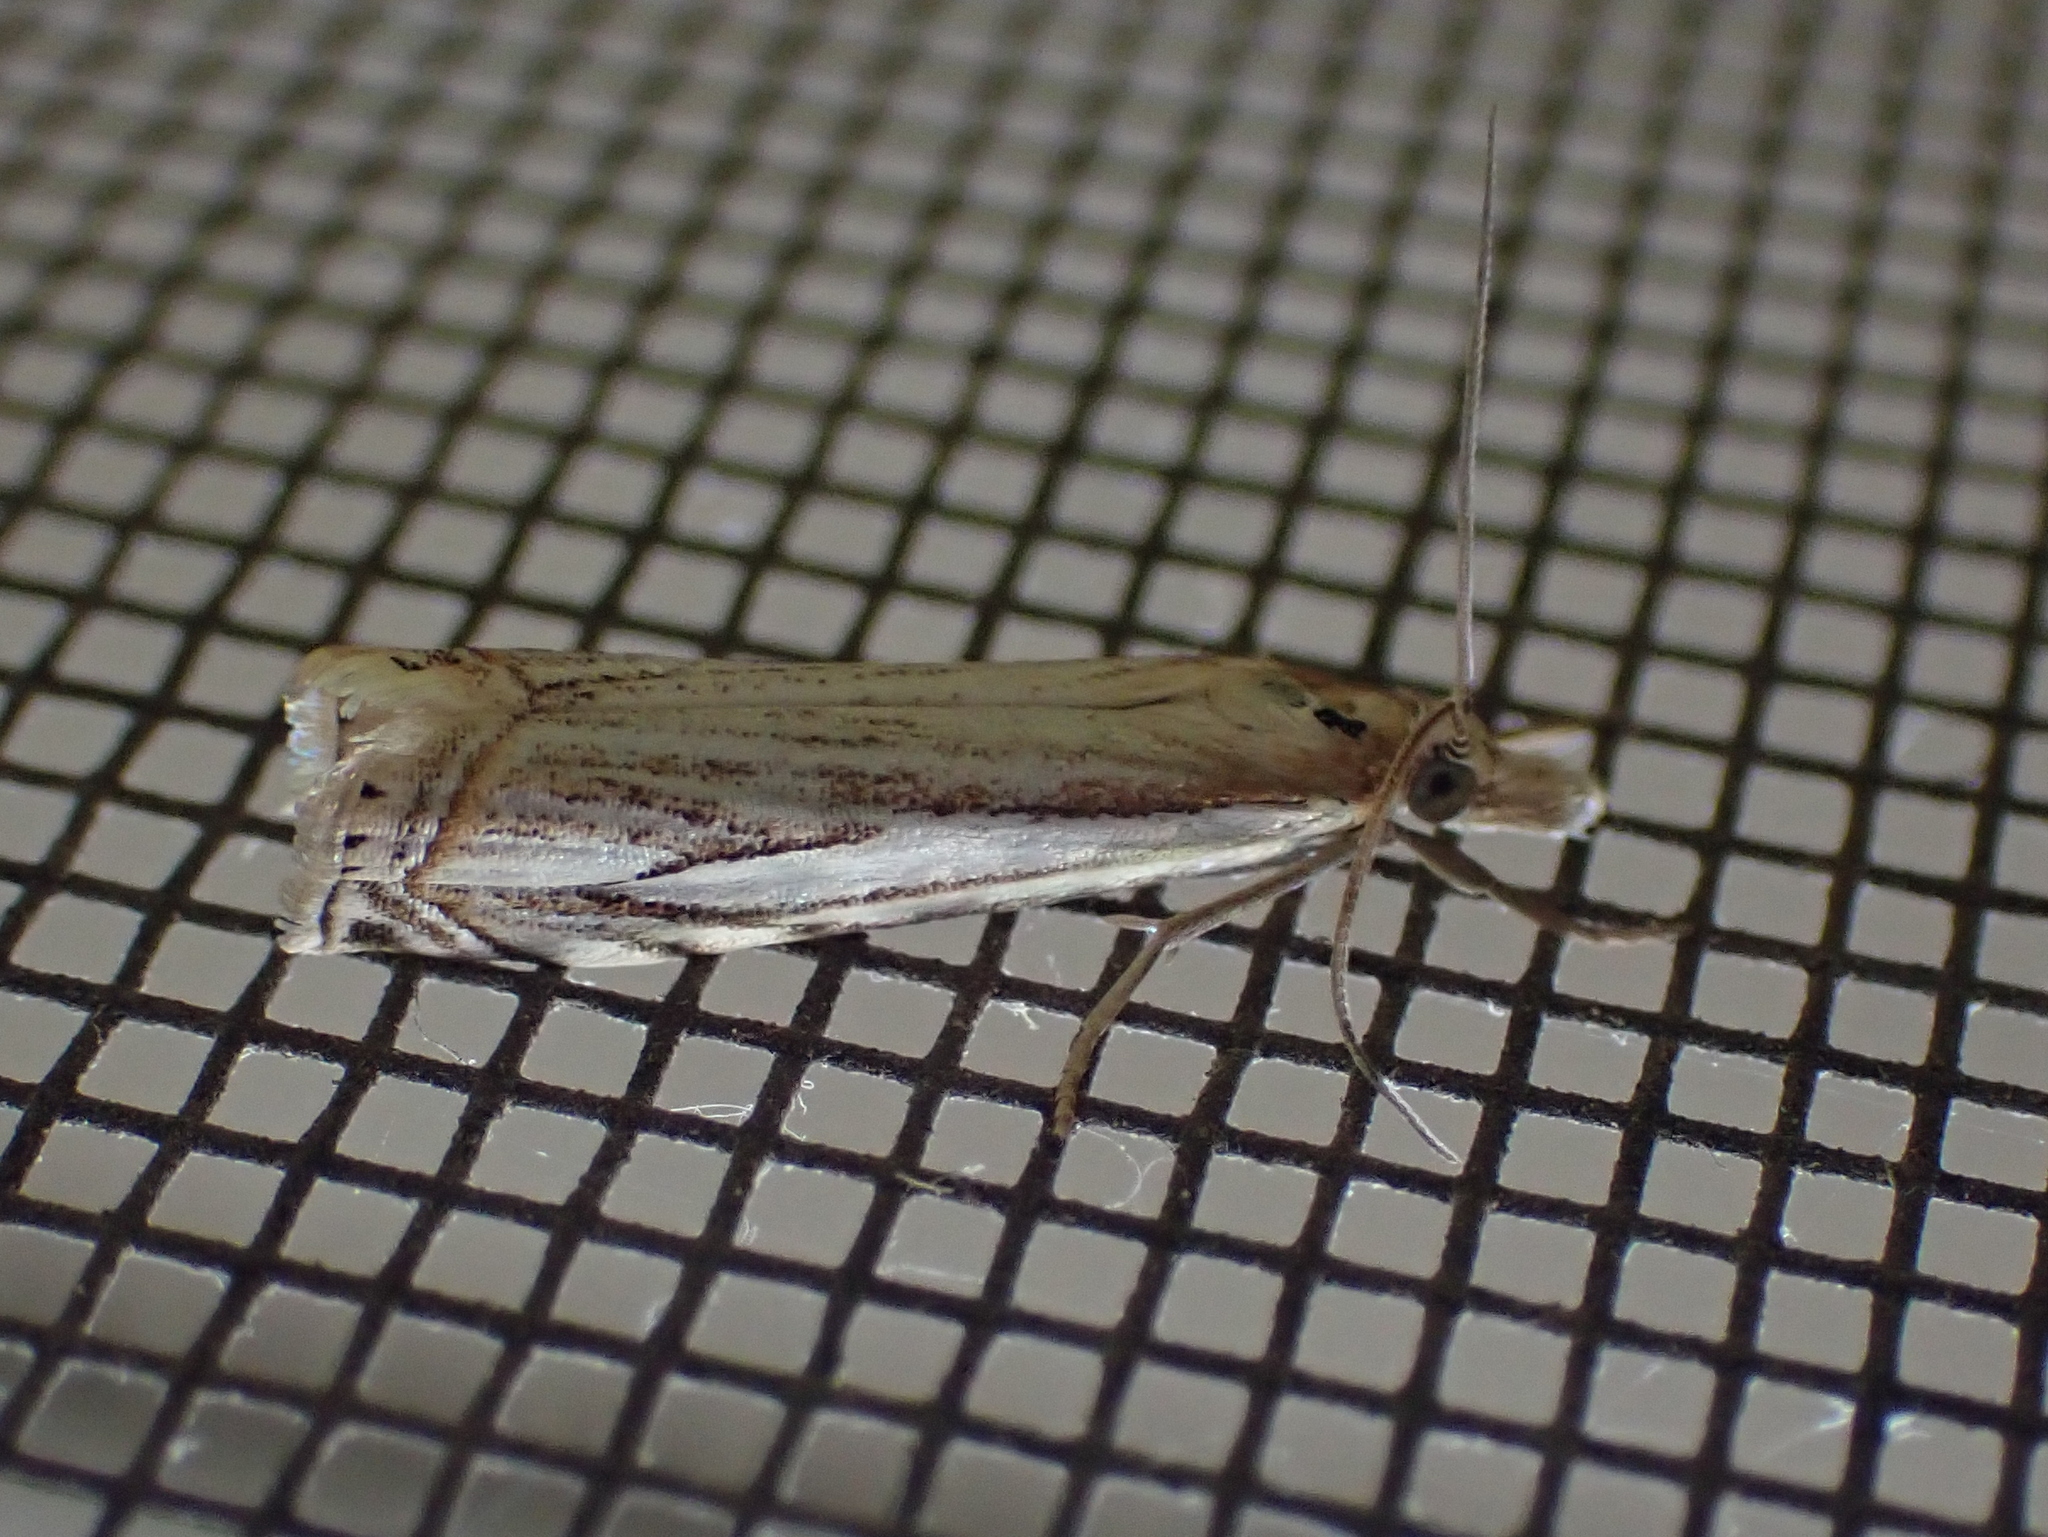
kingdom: Animalia
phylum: Arthropoda
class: Insecta
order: Lepidoptera
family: Crambidae
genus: Crambus
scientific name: Crambus saltuellus
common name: Pasture grass-veneer
